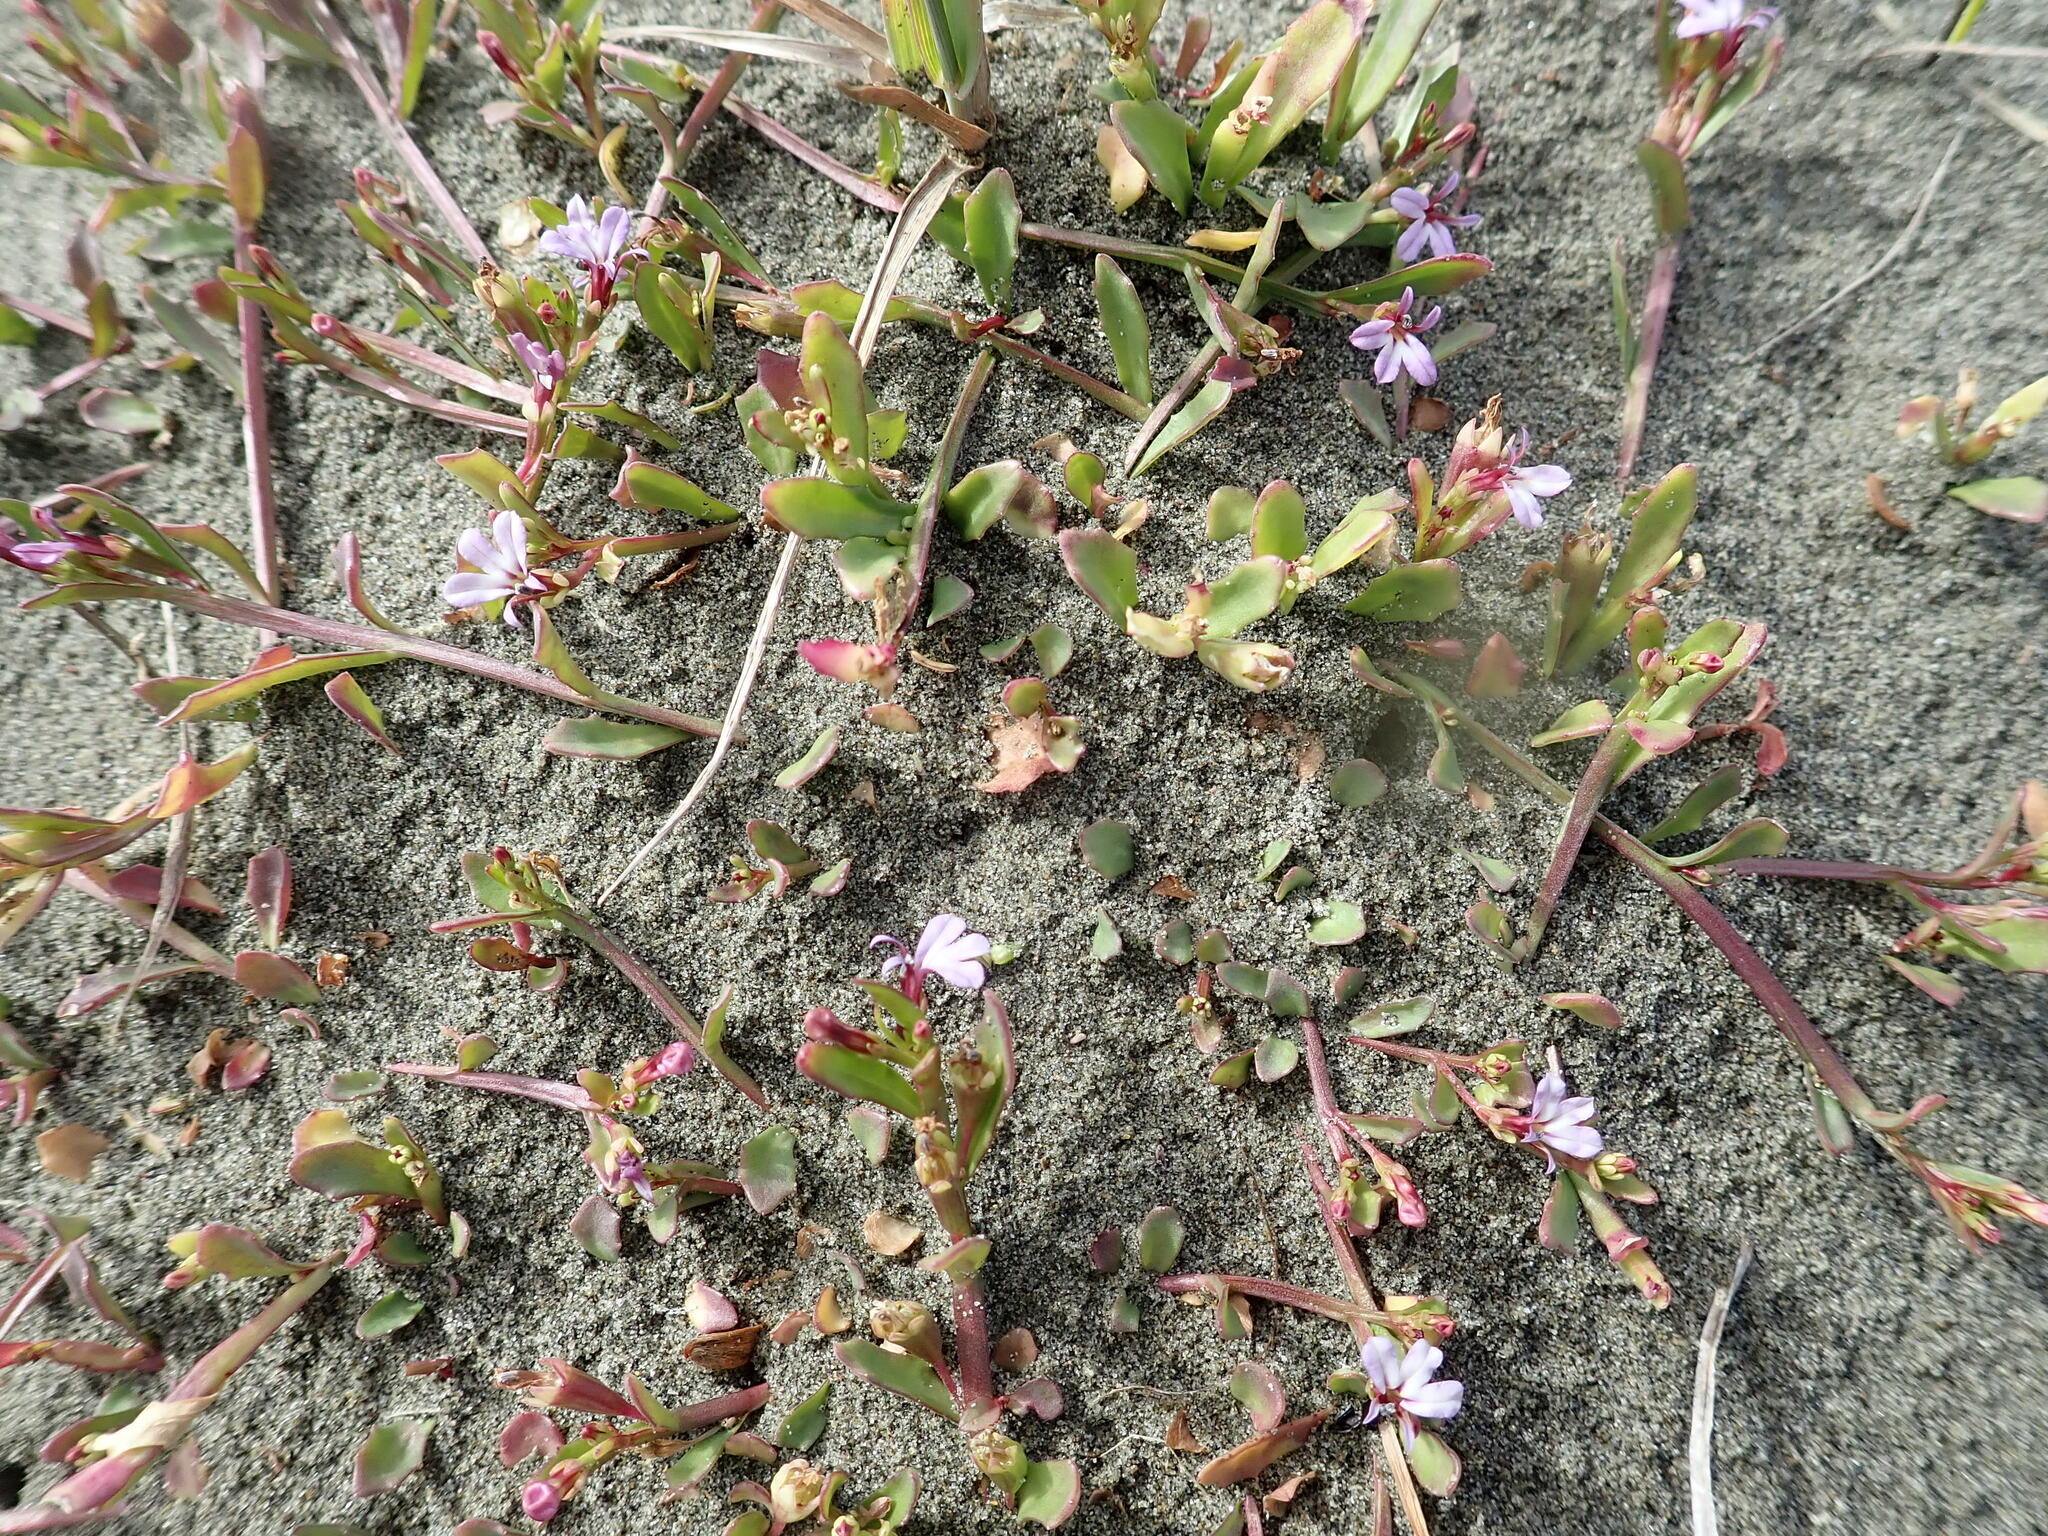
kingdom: Plantae
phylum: Tracheophyta
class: Magnoliopsida
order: Asterales
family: Campanulaceae
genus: Lobelia
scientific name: Lobelia anceps
